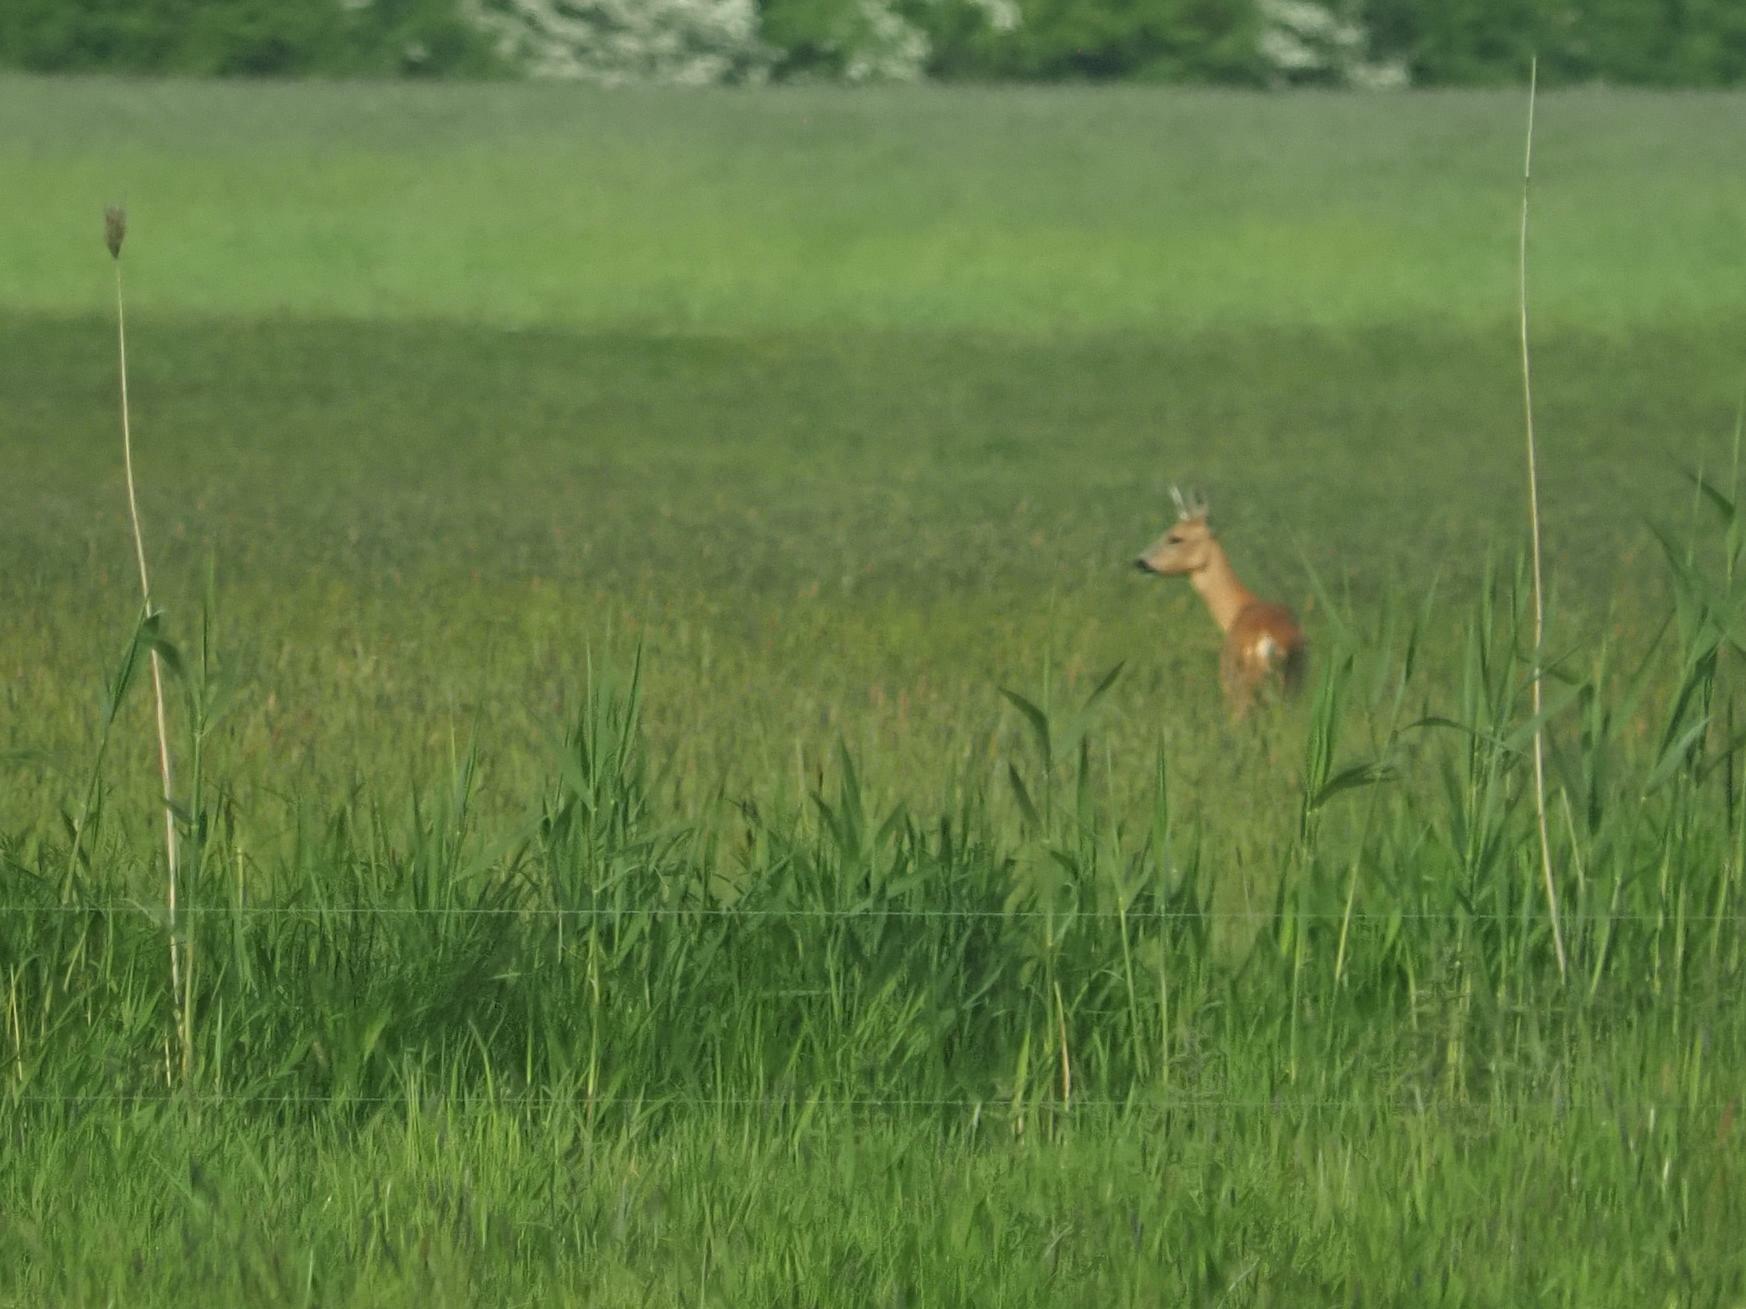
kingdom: Animalia
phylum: Chordata
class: Mammalia
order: Artiodactyla
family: Cervidae
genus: Capreolus
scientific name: Capreolus capreolus
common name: Western roe deer
